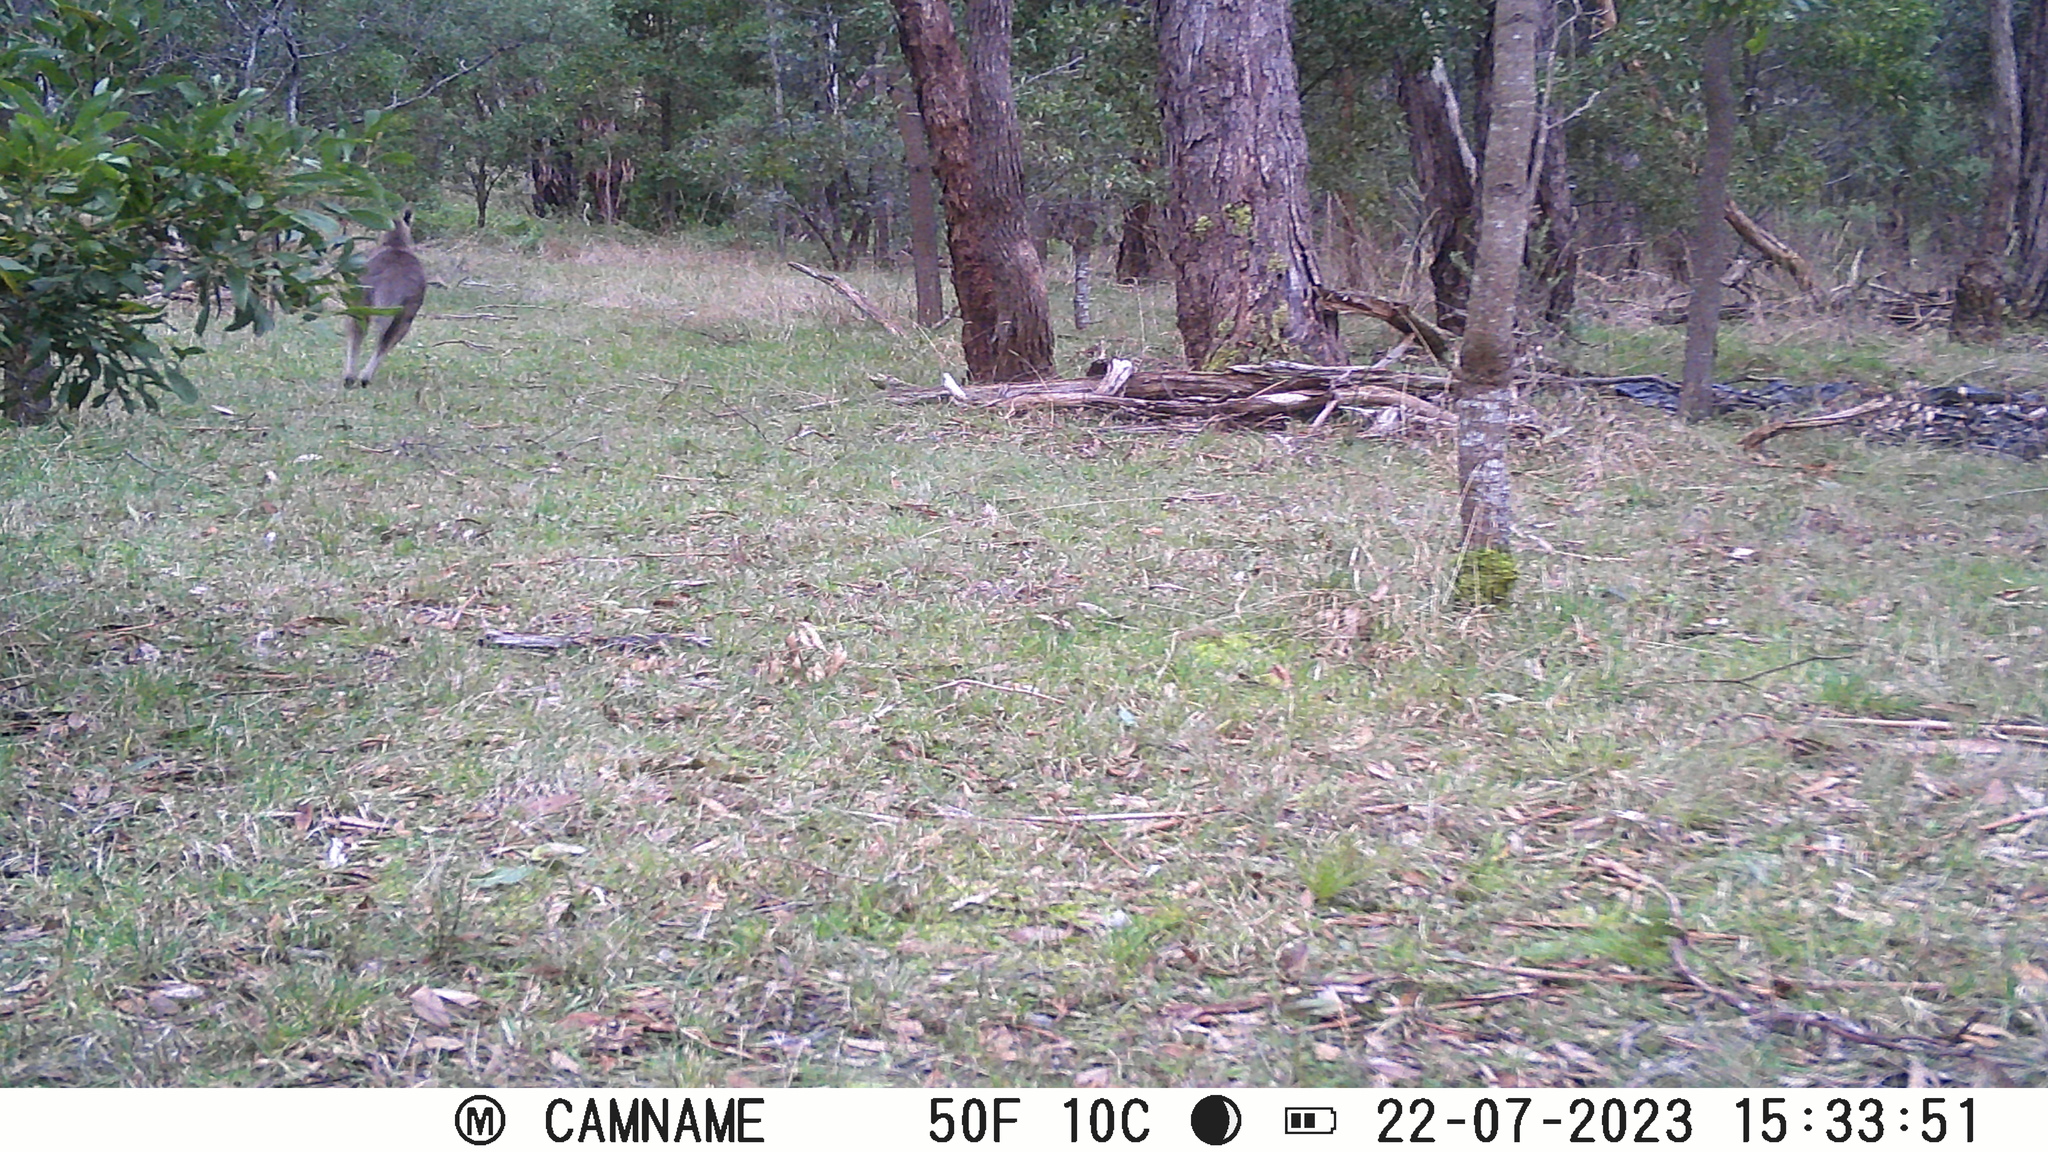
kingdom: Animalia
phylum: Chordata
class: Mammalia
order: Diprotodontia
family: Macropodidae
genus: Macropus
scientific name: Macropus giganteus
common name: Eastern grey kangaroo
